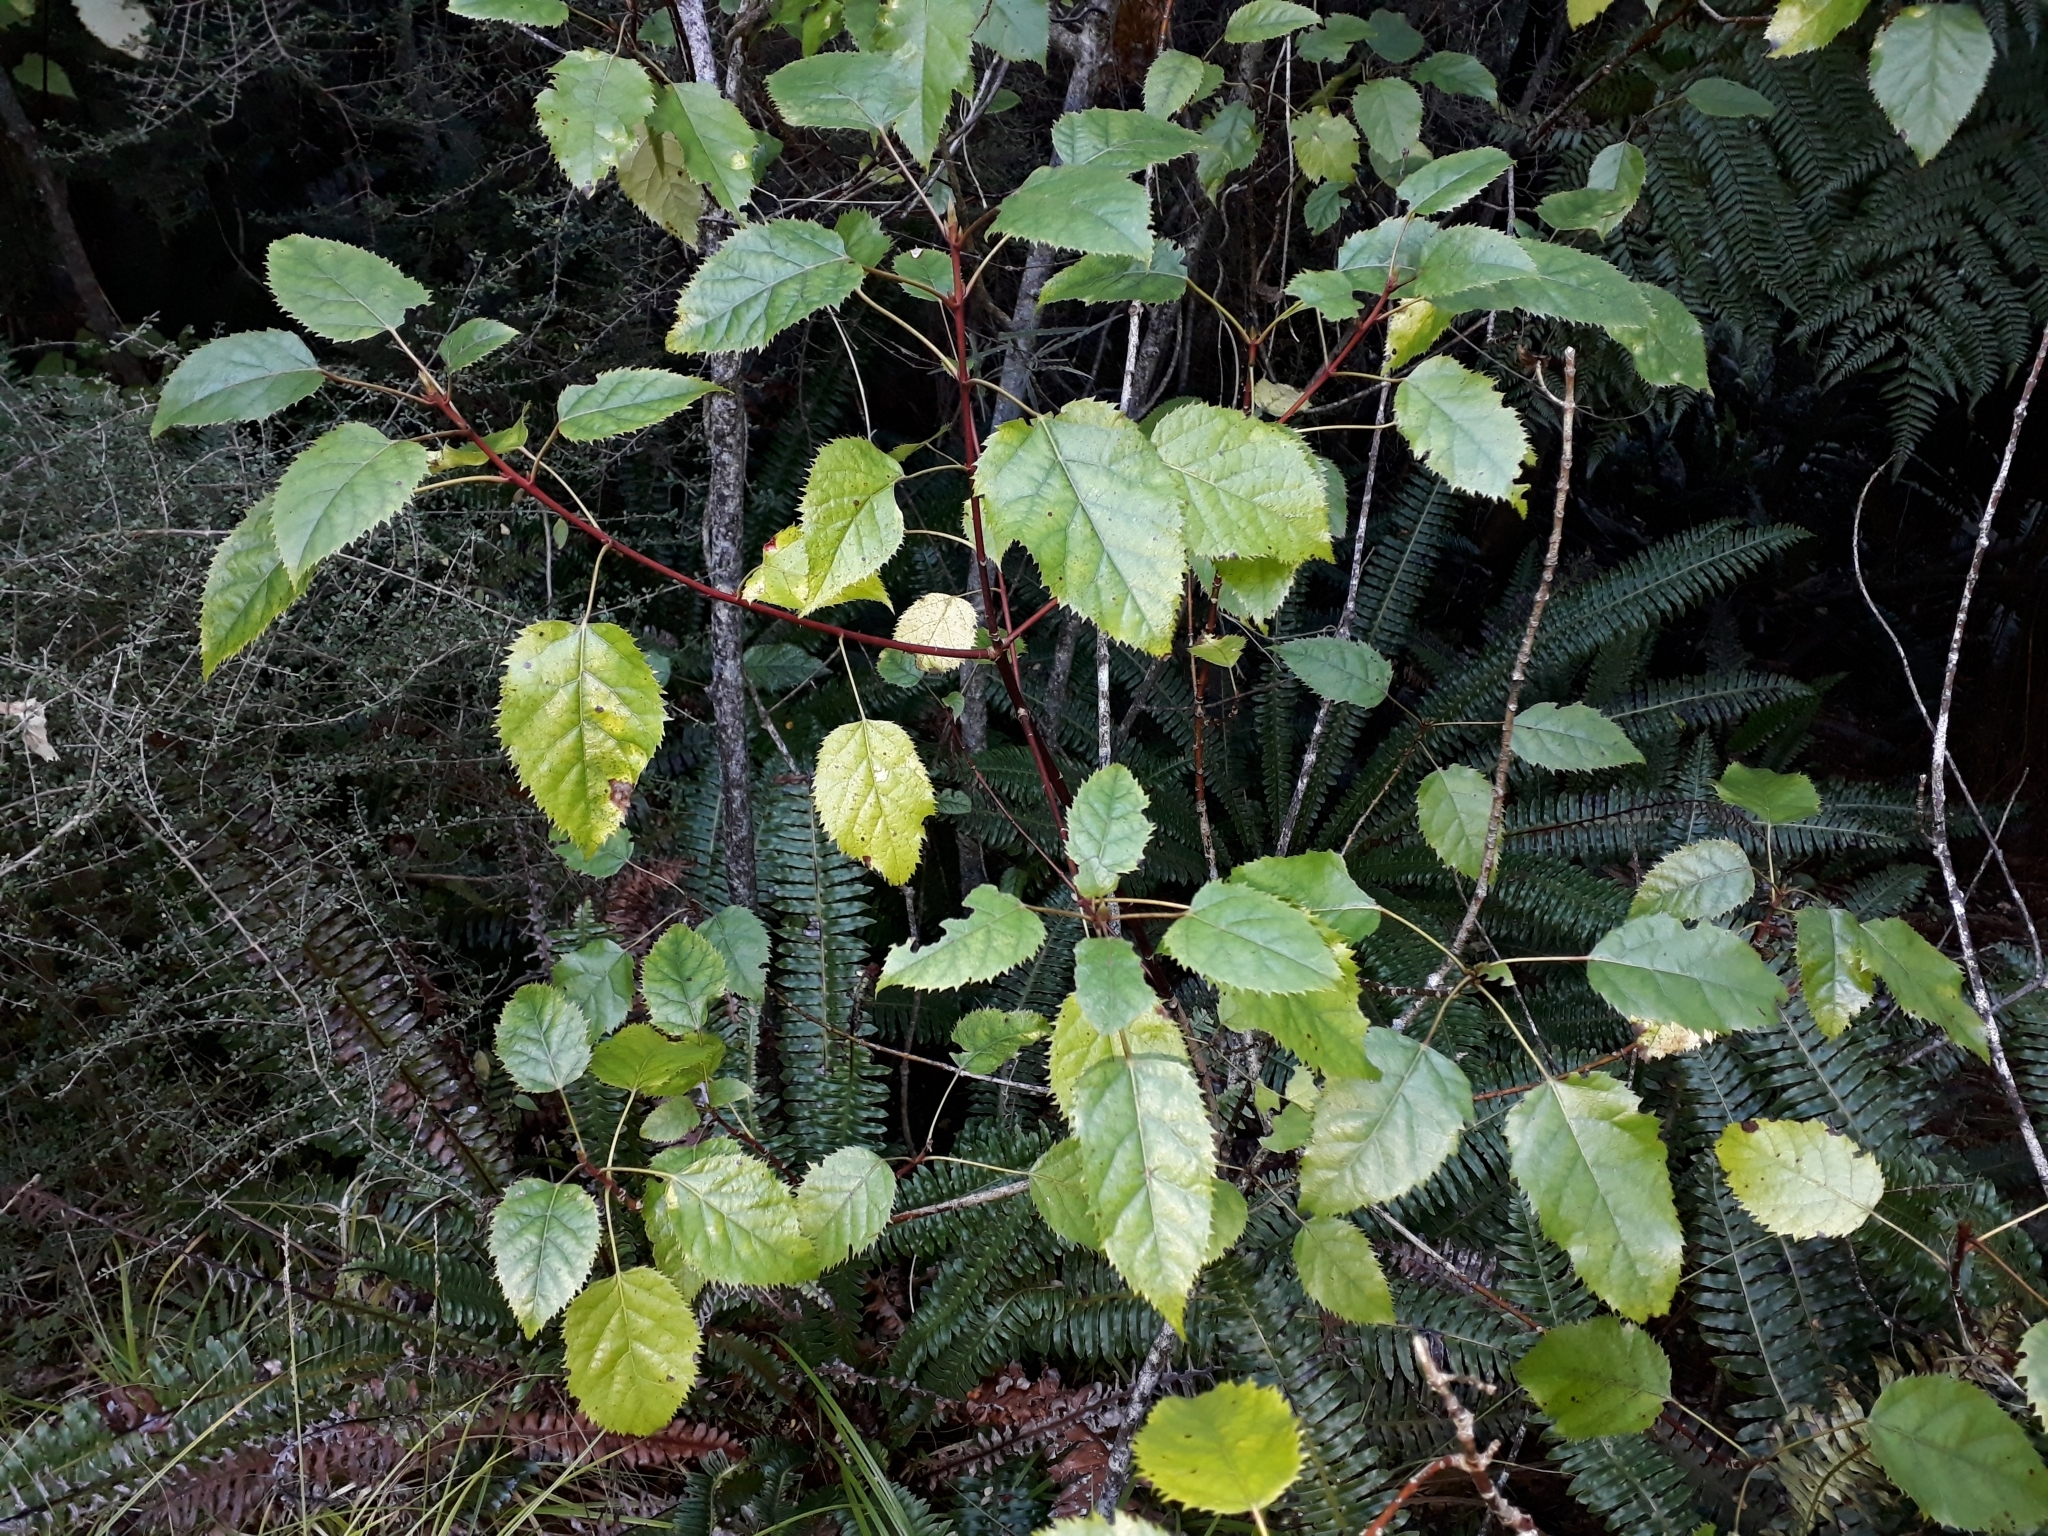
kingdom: Plantae
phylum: Tracheophyta
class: Magnoliopsida
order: Oxalidales
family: Elaeocarpaceae
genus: Aristotelia
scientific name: Aristotelia serrata
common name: New zealand wineberry
